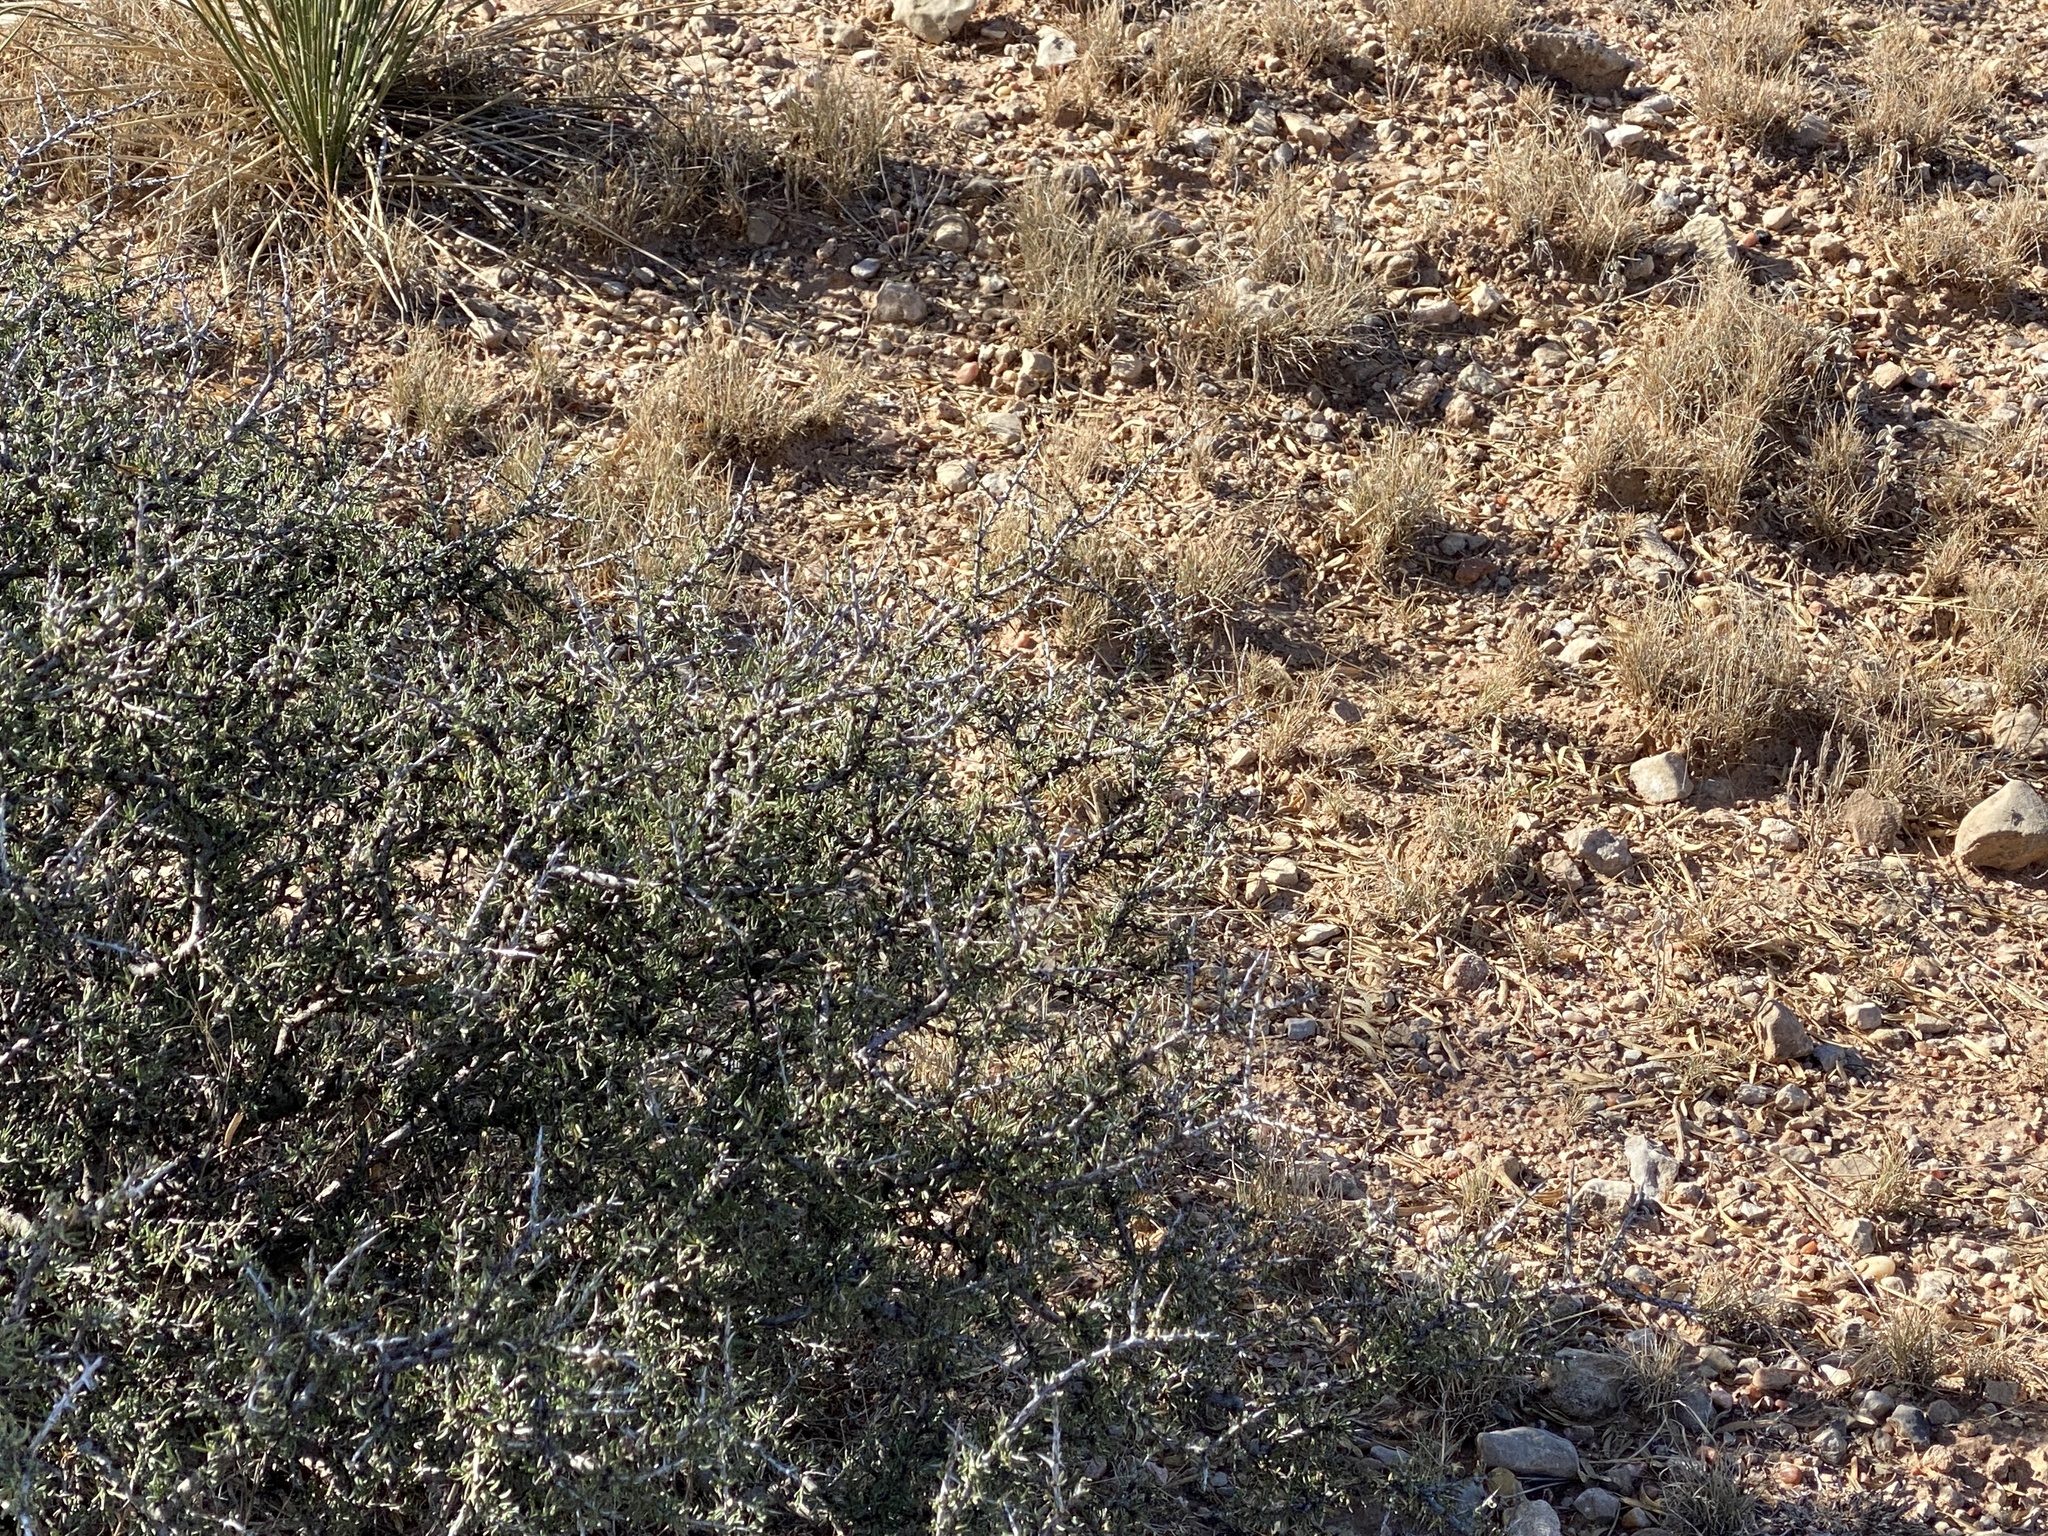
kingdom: Plantae
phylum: Tracheophyta
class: Magnoliopsida
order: Rosales
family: Rhamnaceae
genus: Condalia
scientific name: Condalia ericoides
